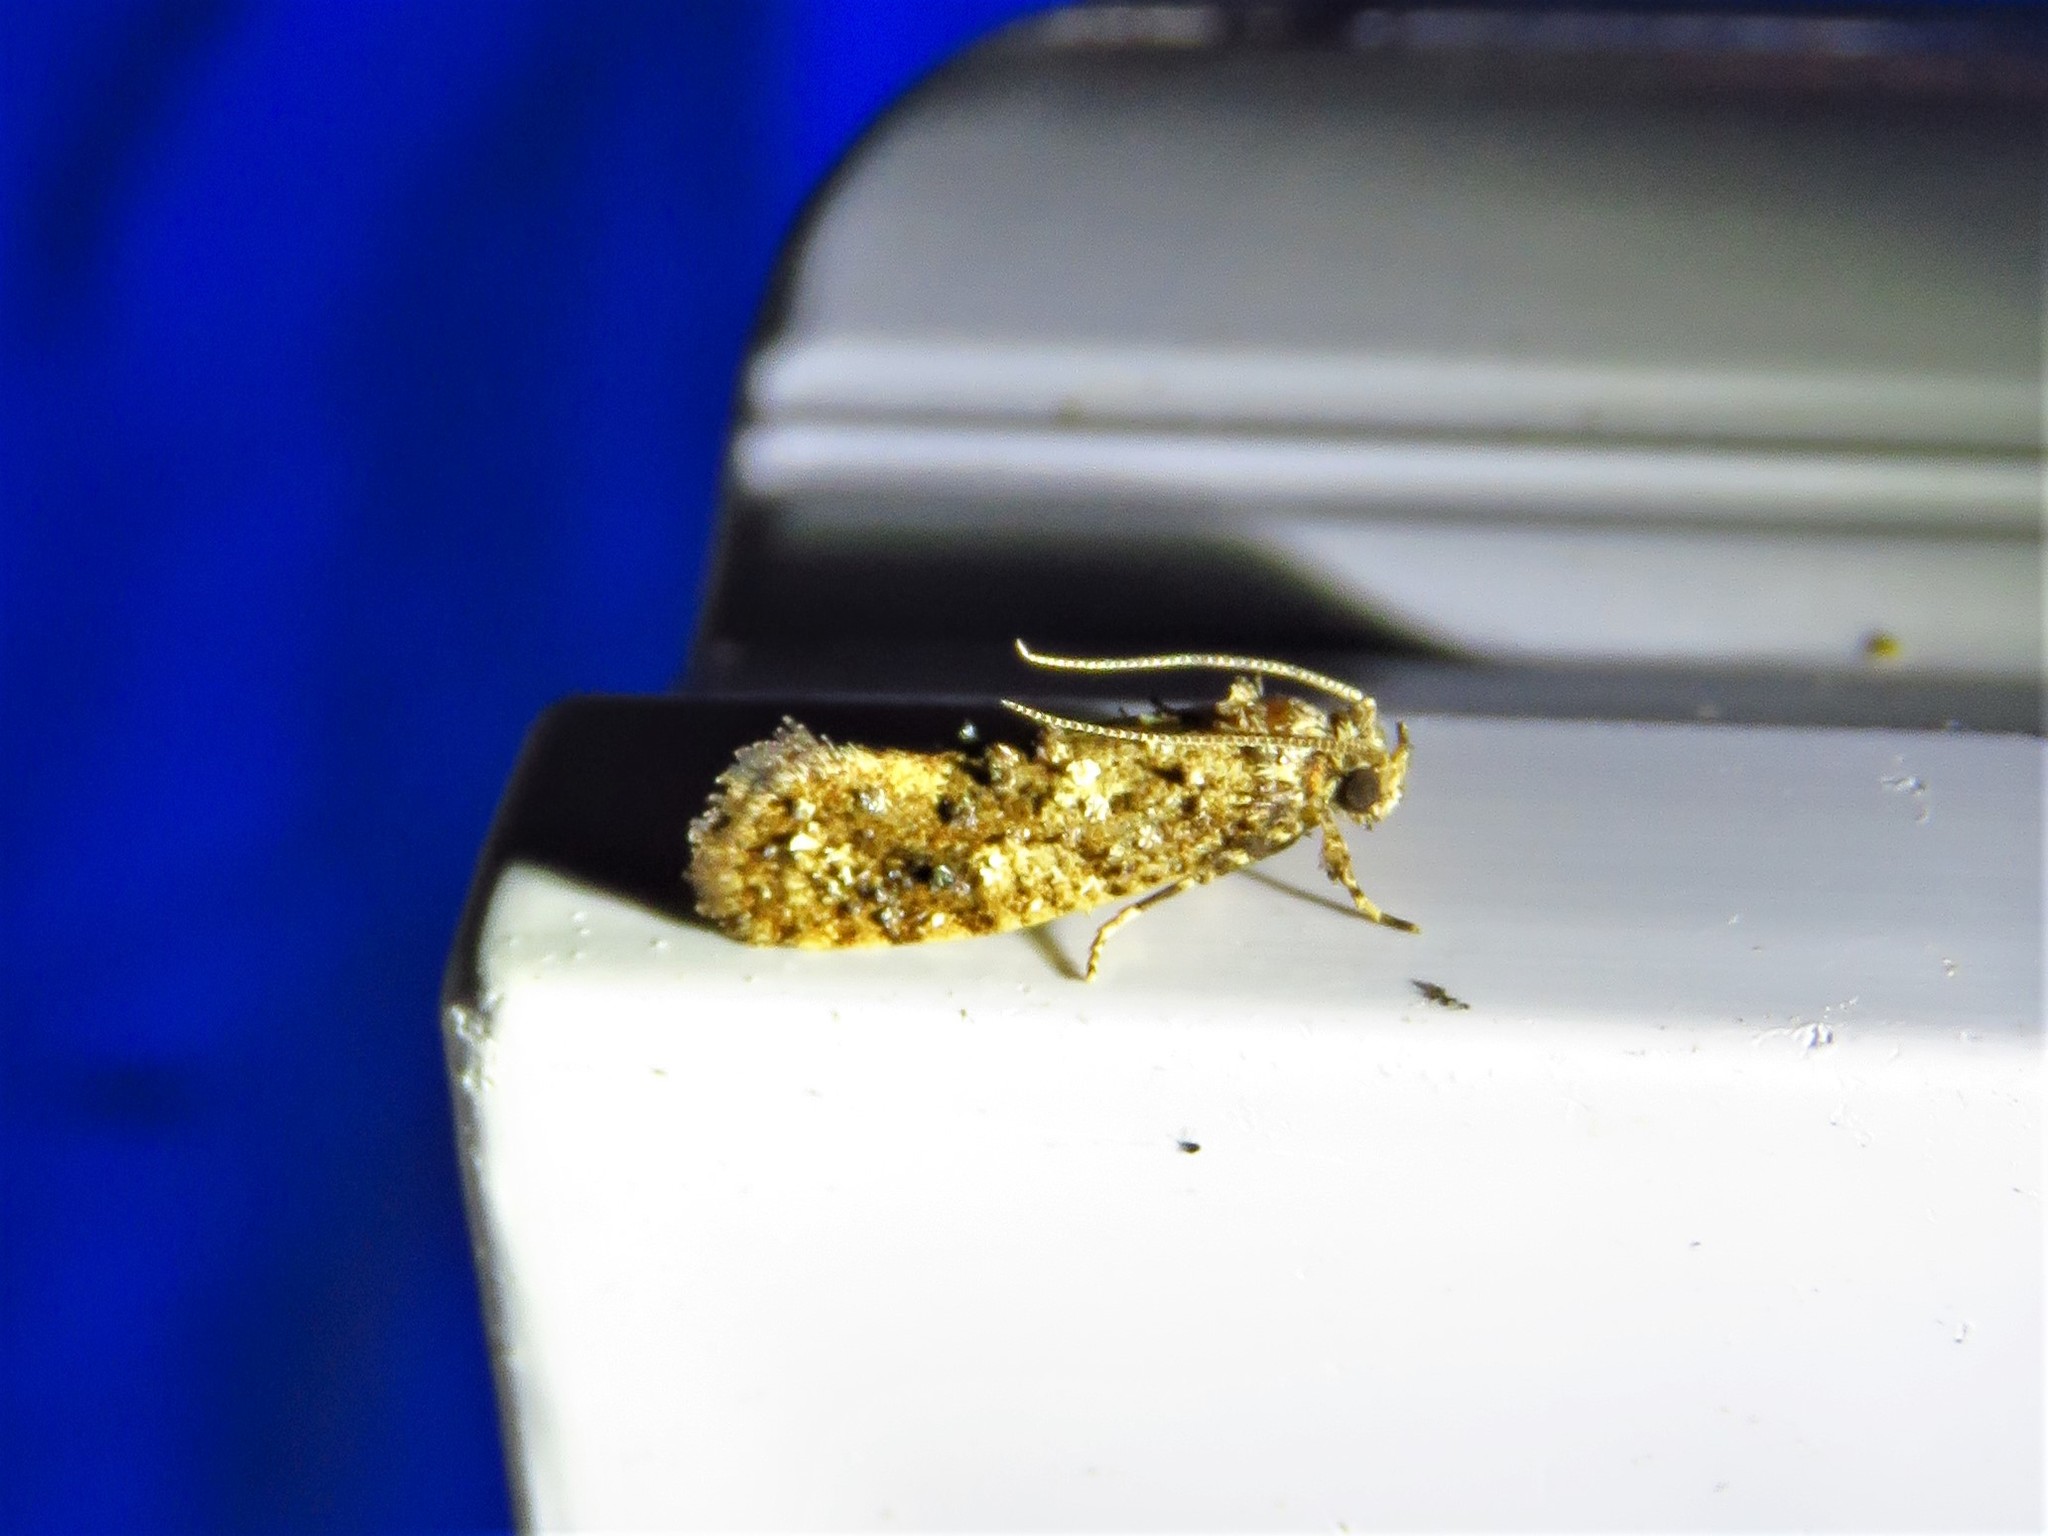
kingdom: Animalia
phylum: Arthropoda
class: Insecta
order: Lepidoptera
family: Tineidae
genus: Acrolophus
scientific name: Acrolophus cressoni
